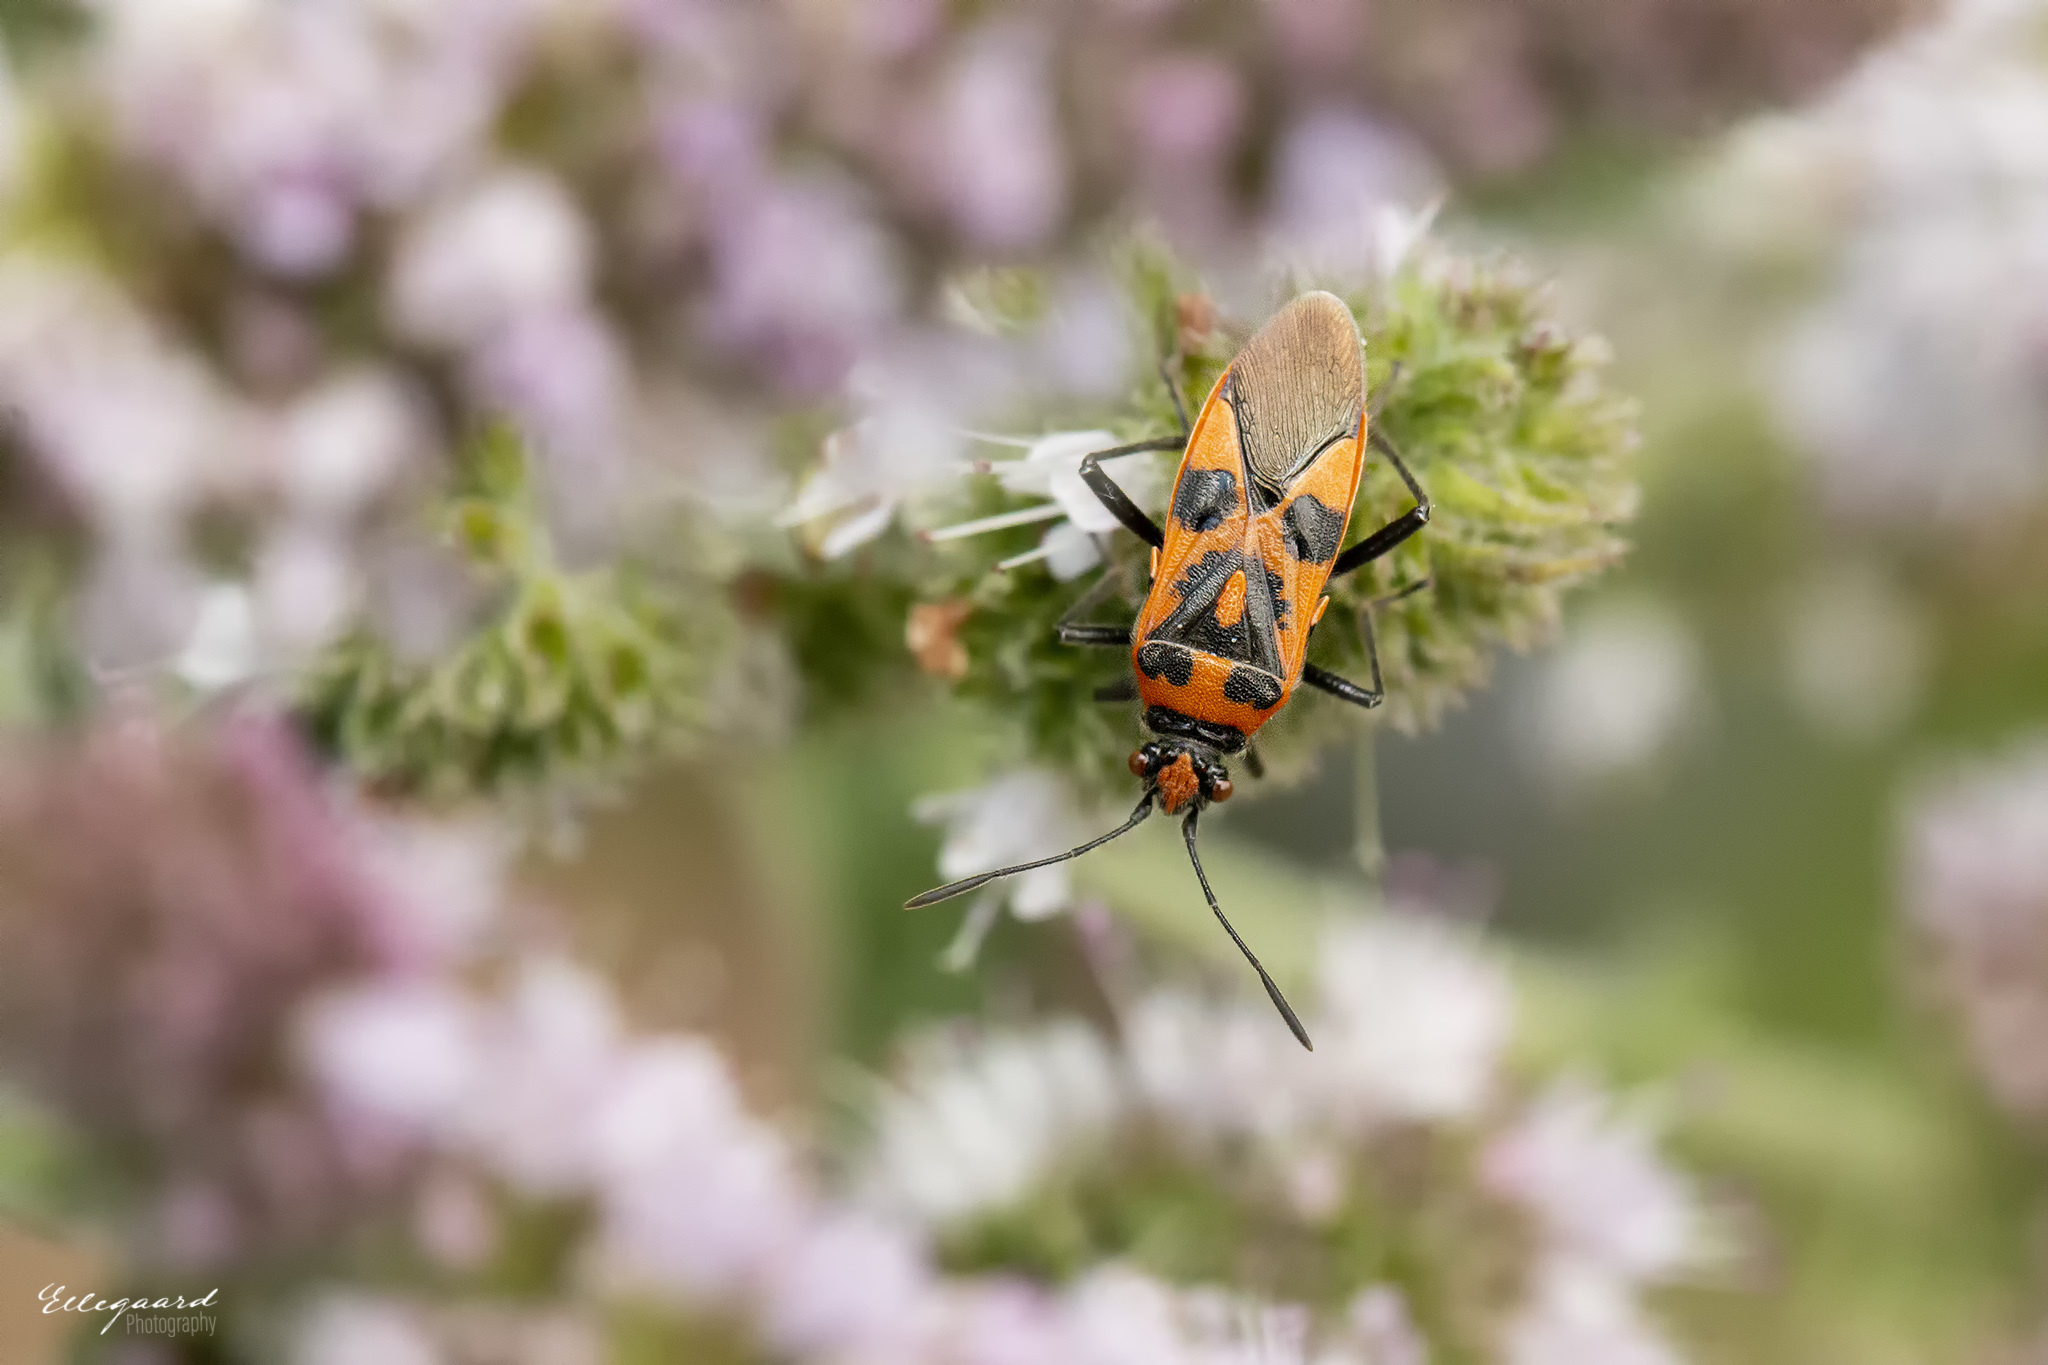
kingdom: Animalia
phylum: Arthropoda
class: Insecta
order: Hemiptera
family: Rhopalidae
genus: Corizus
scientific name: Corizus hyoscyami
